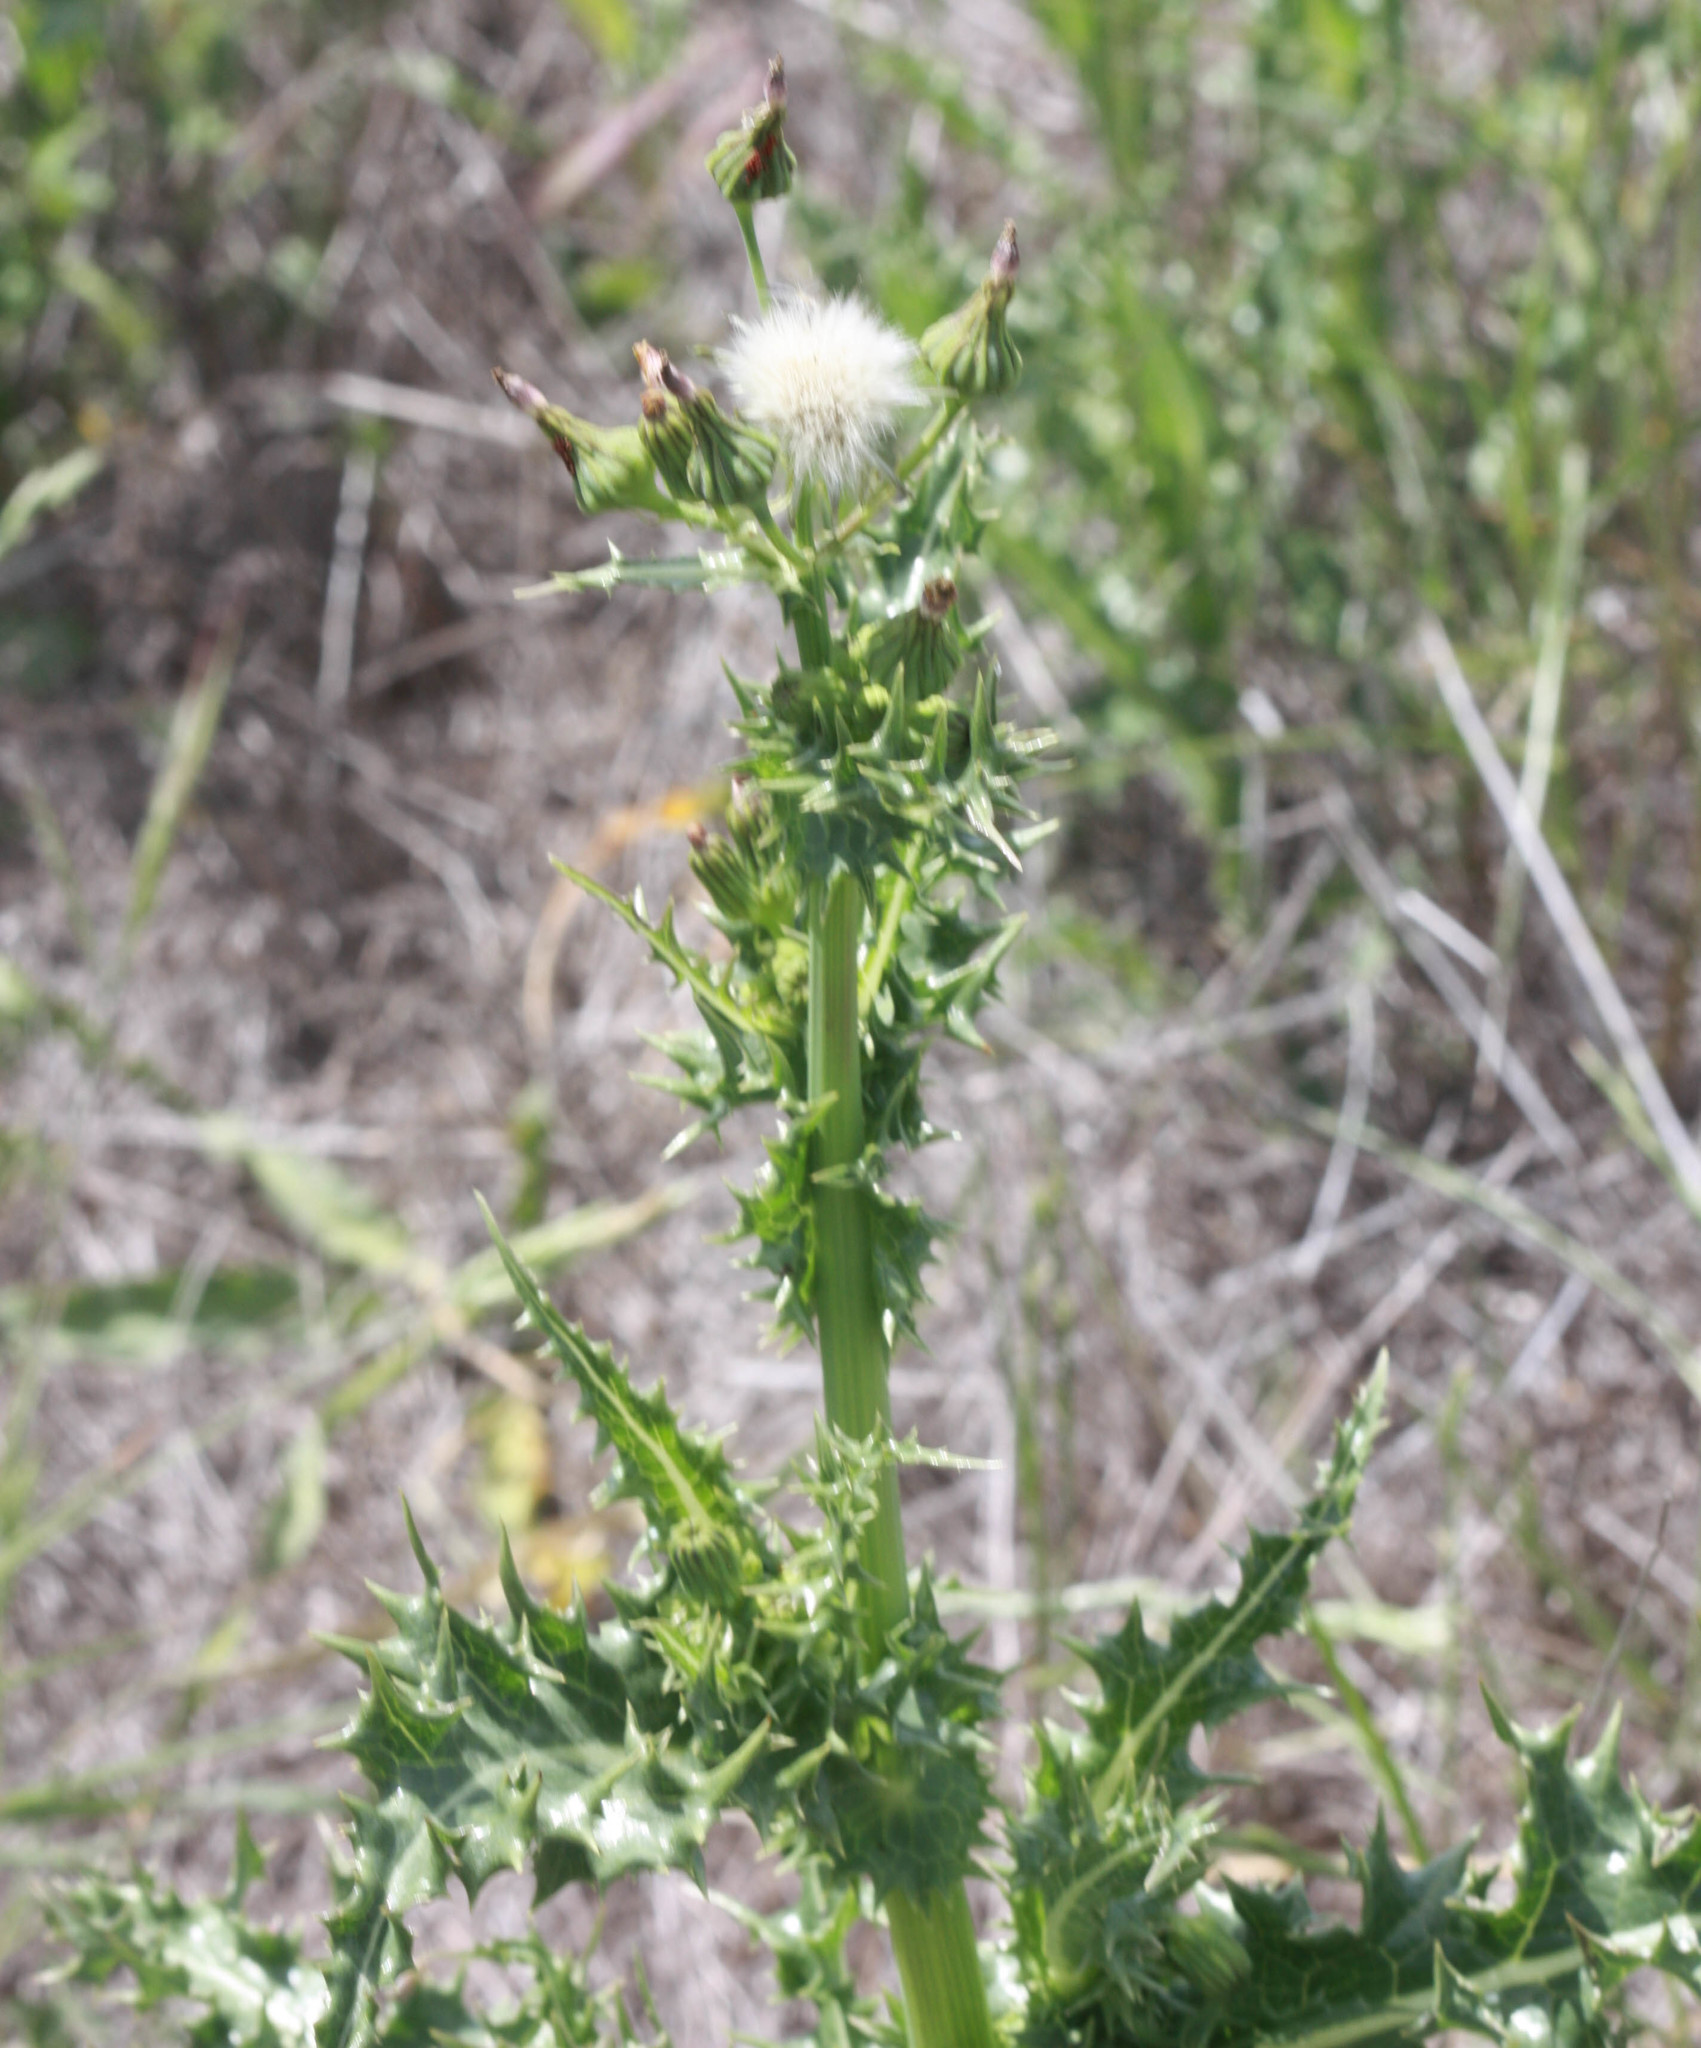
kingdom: Plantae
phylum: Tracheophyta
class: Magnoliopsida
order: Asterales
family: Asteraceae
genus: Sonchus
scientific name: Sonchus asper
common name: Prickly sow-thistle
